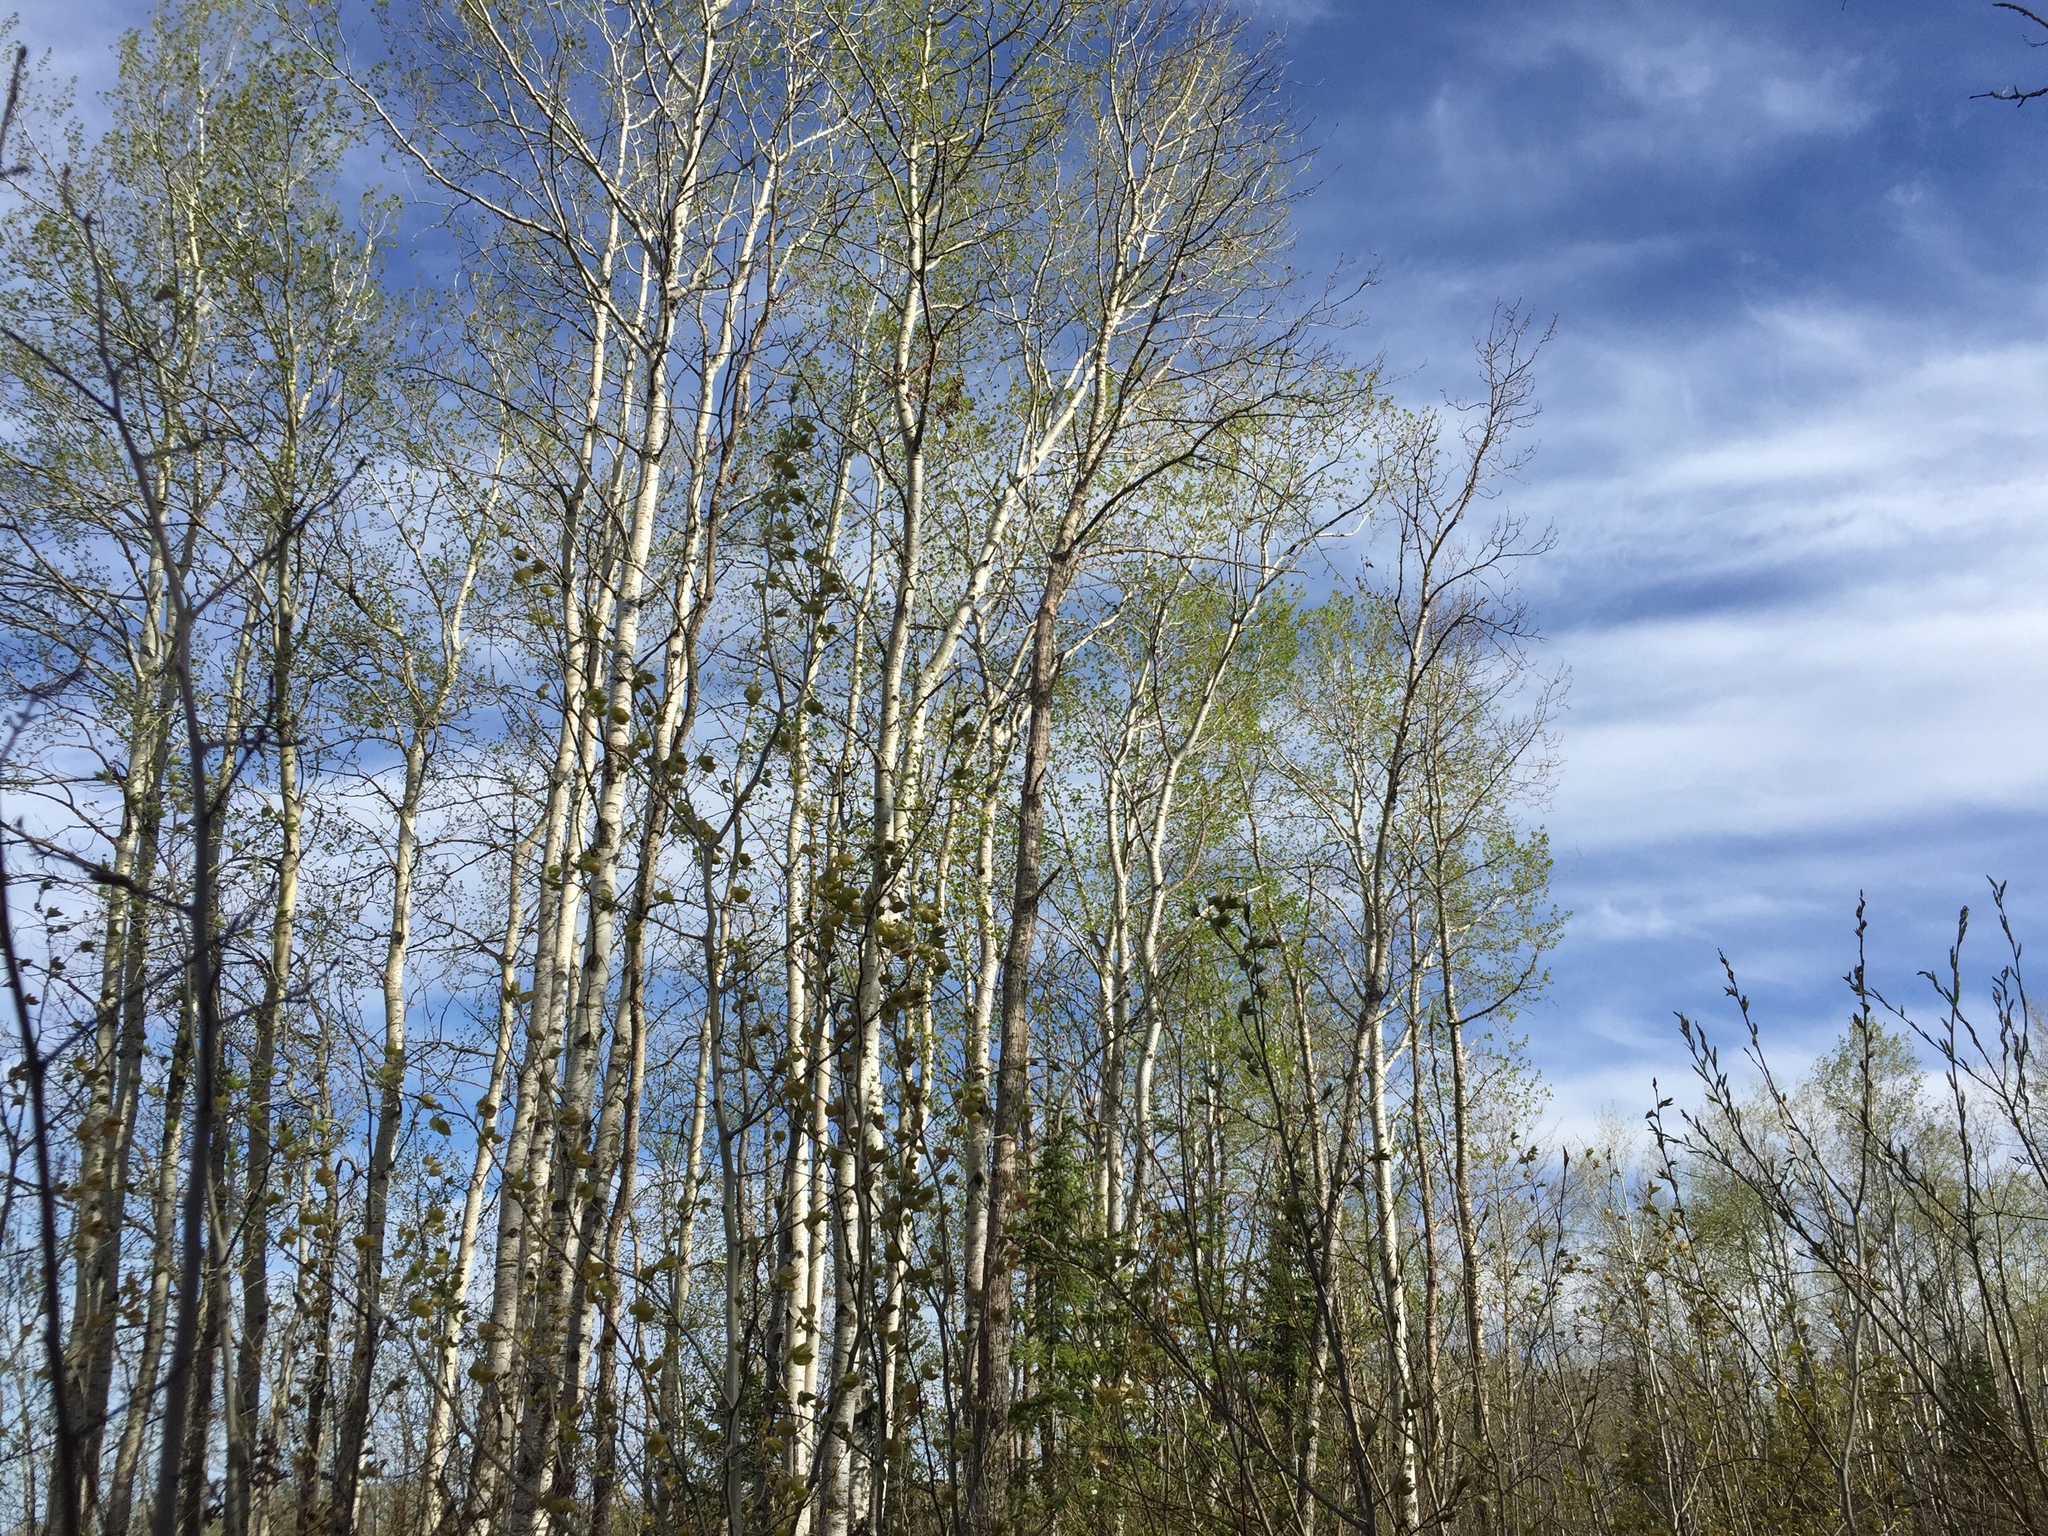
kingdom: Plantae
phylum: Tracheophyta
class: Magnoliopsida
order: Malpighiales
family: Salicaceae
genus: Populus
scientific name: Populus tremuloides
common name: Quaking aspen
